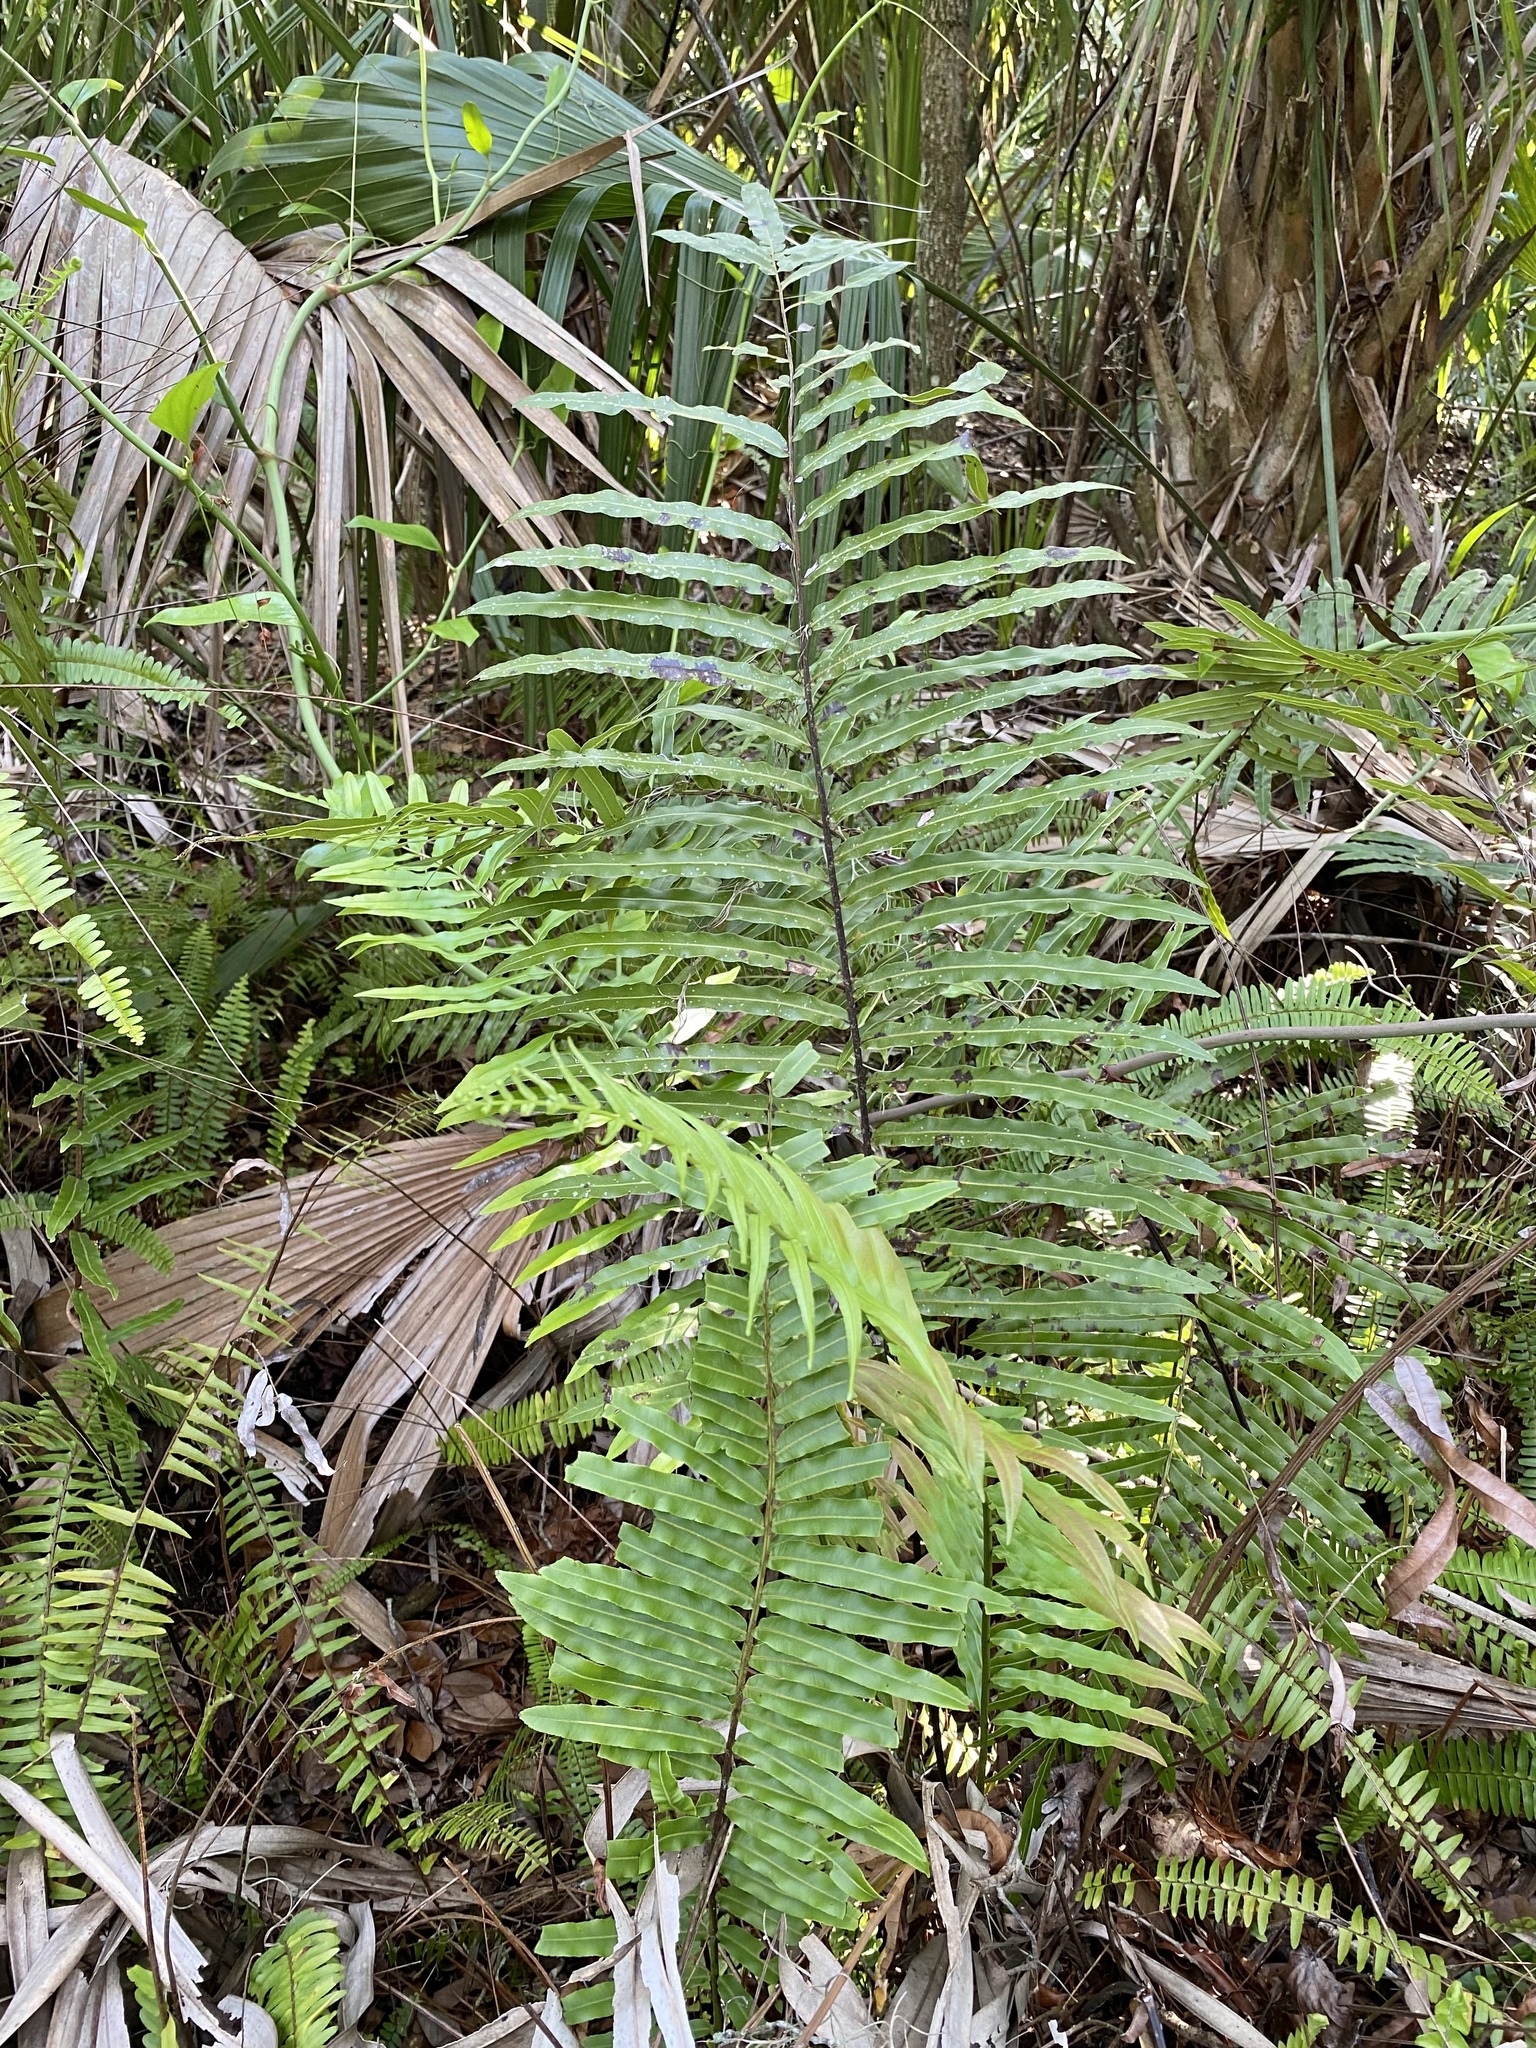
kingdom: Plantae
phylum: Tracheophyta
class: Polypodiopsida
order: Polypodiales
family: Blechnaceae
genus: Telmatoblechnum
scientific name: Telmatoblechnum serrulatum
